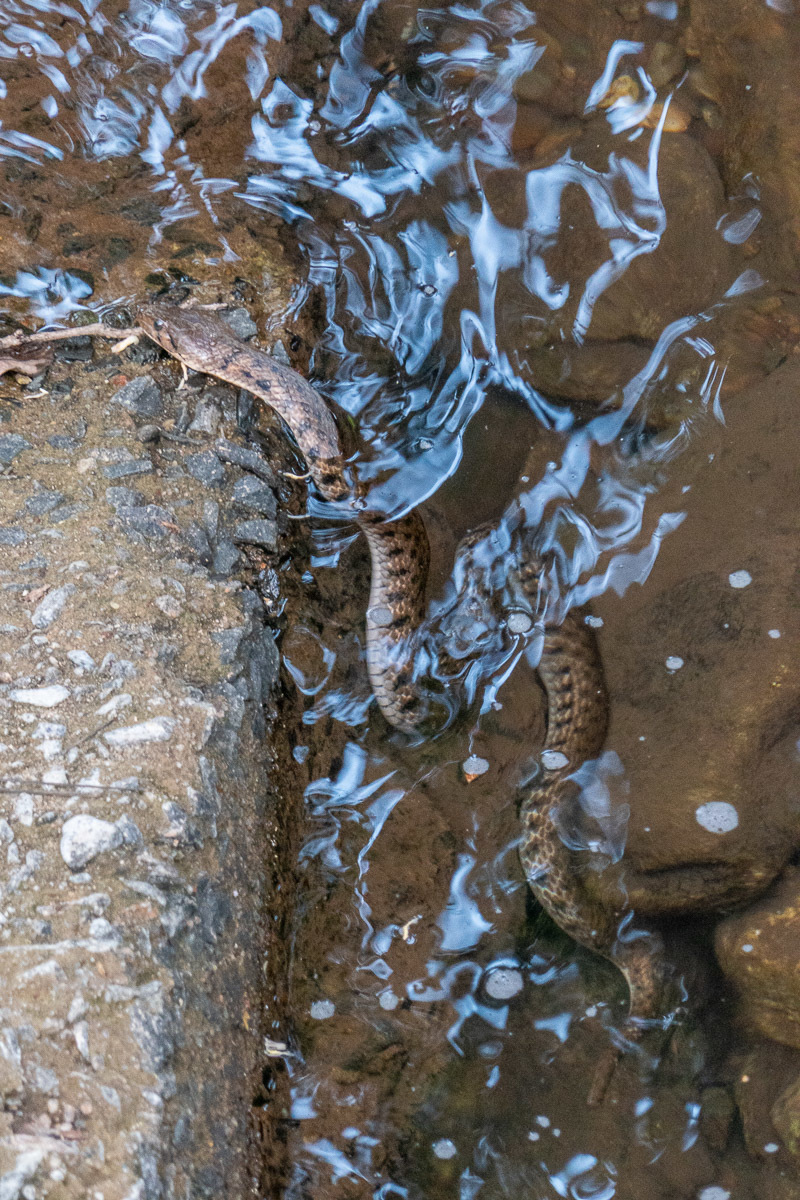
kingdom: Animalia
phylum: Chordata
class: Squamata
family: Colubridae
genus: Fowlea
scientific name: Fowlea piscator
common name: Asiatic water snake
